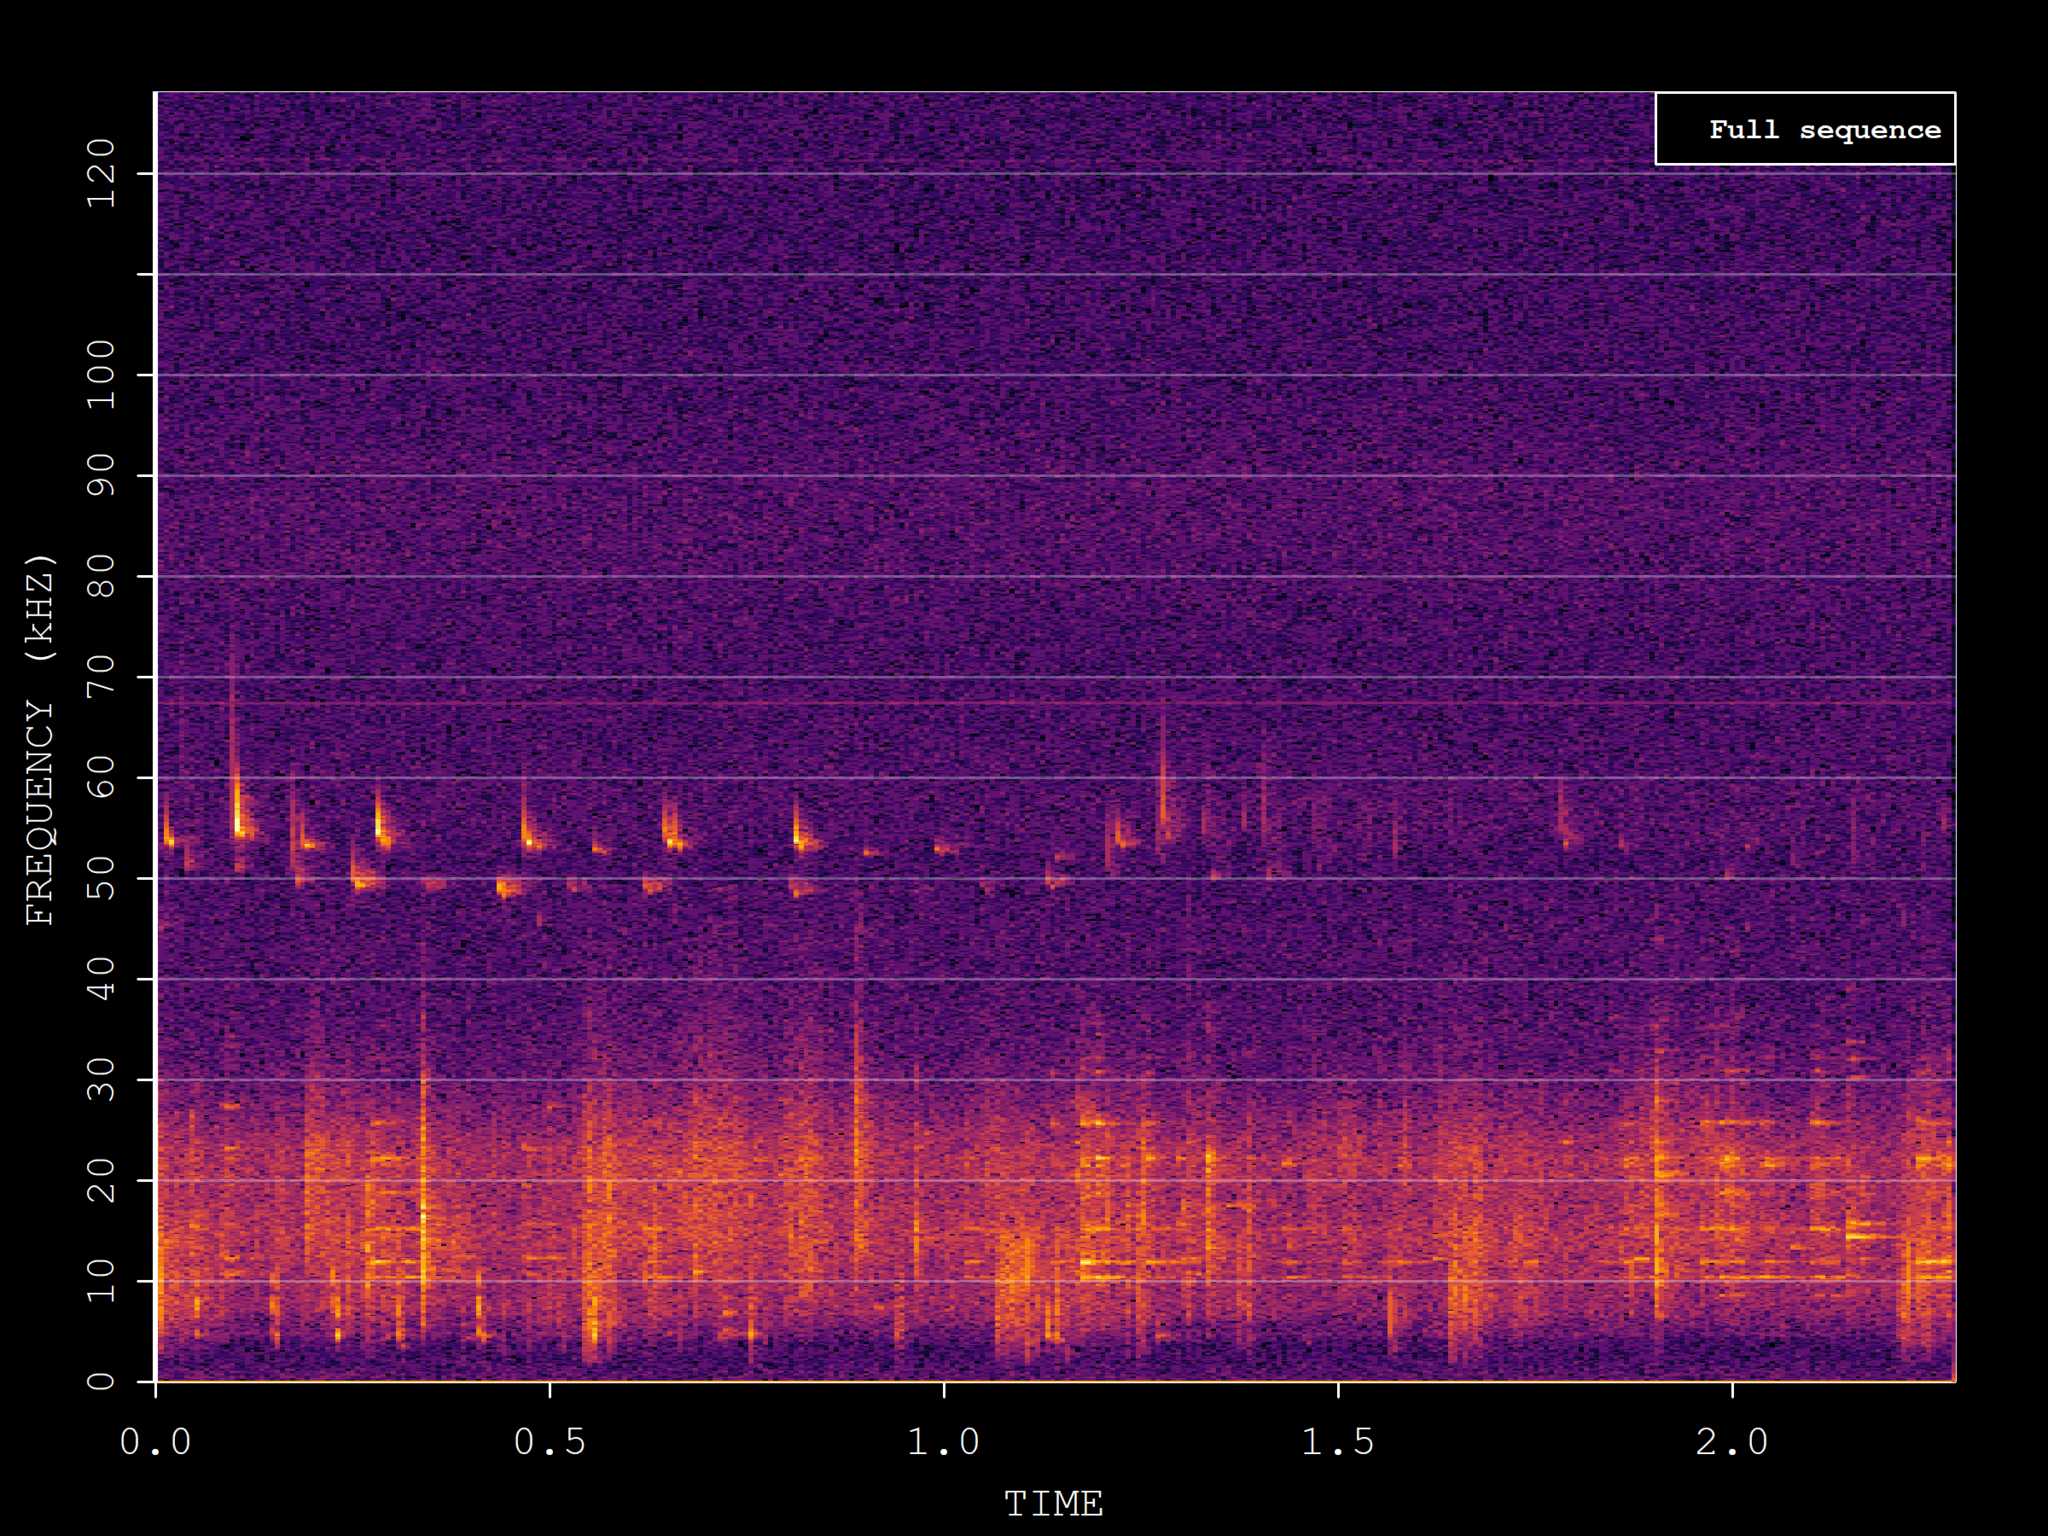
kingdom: Animalia
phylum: Chordata
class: Mammalia
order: Chiroptera
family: Vespertilionidae
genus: Pipistrellus
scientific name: Pipistrellus pygmaeus
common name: Soprano pipistrelle
